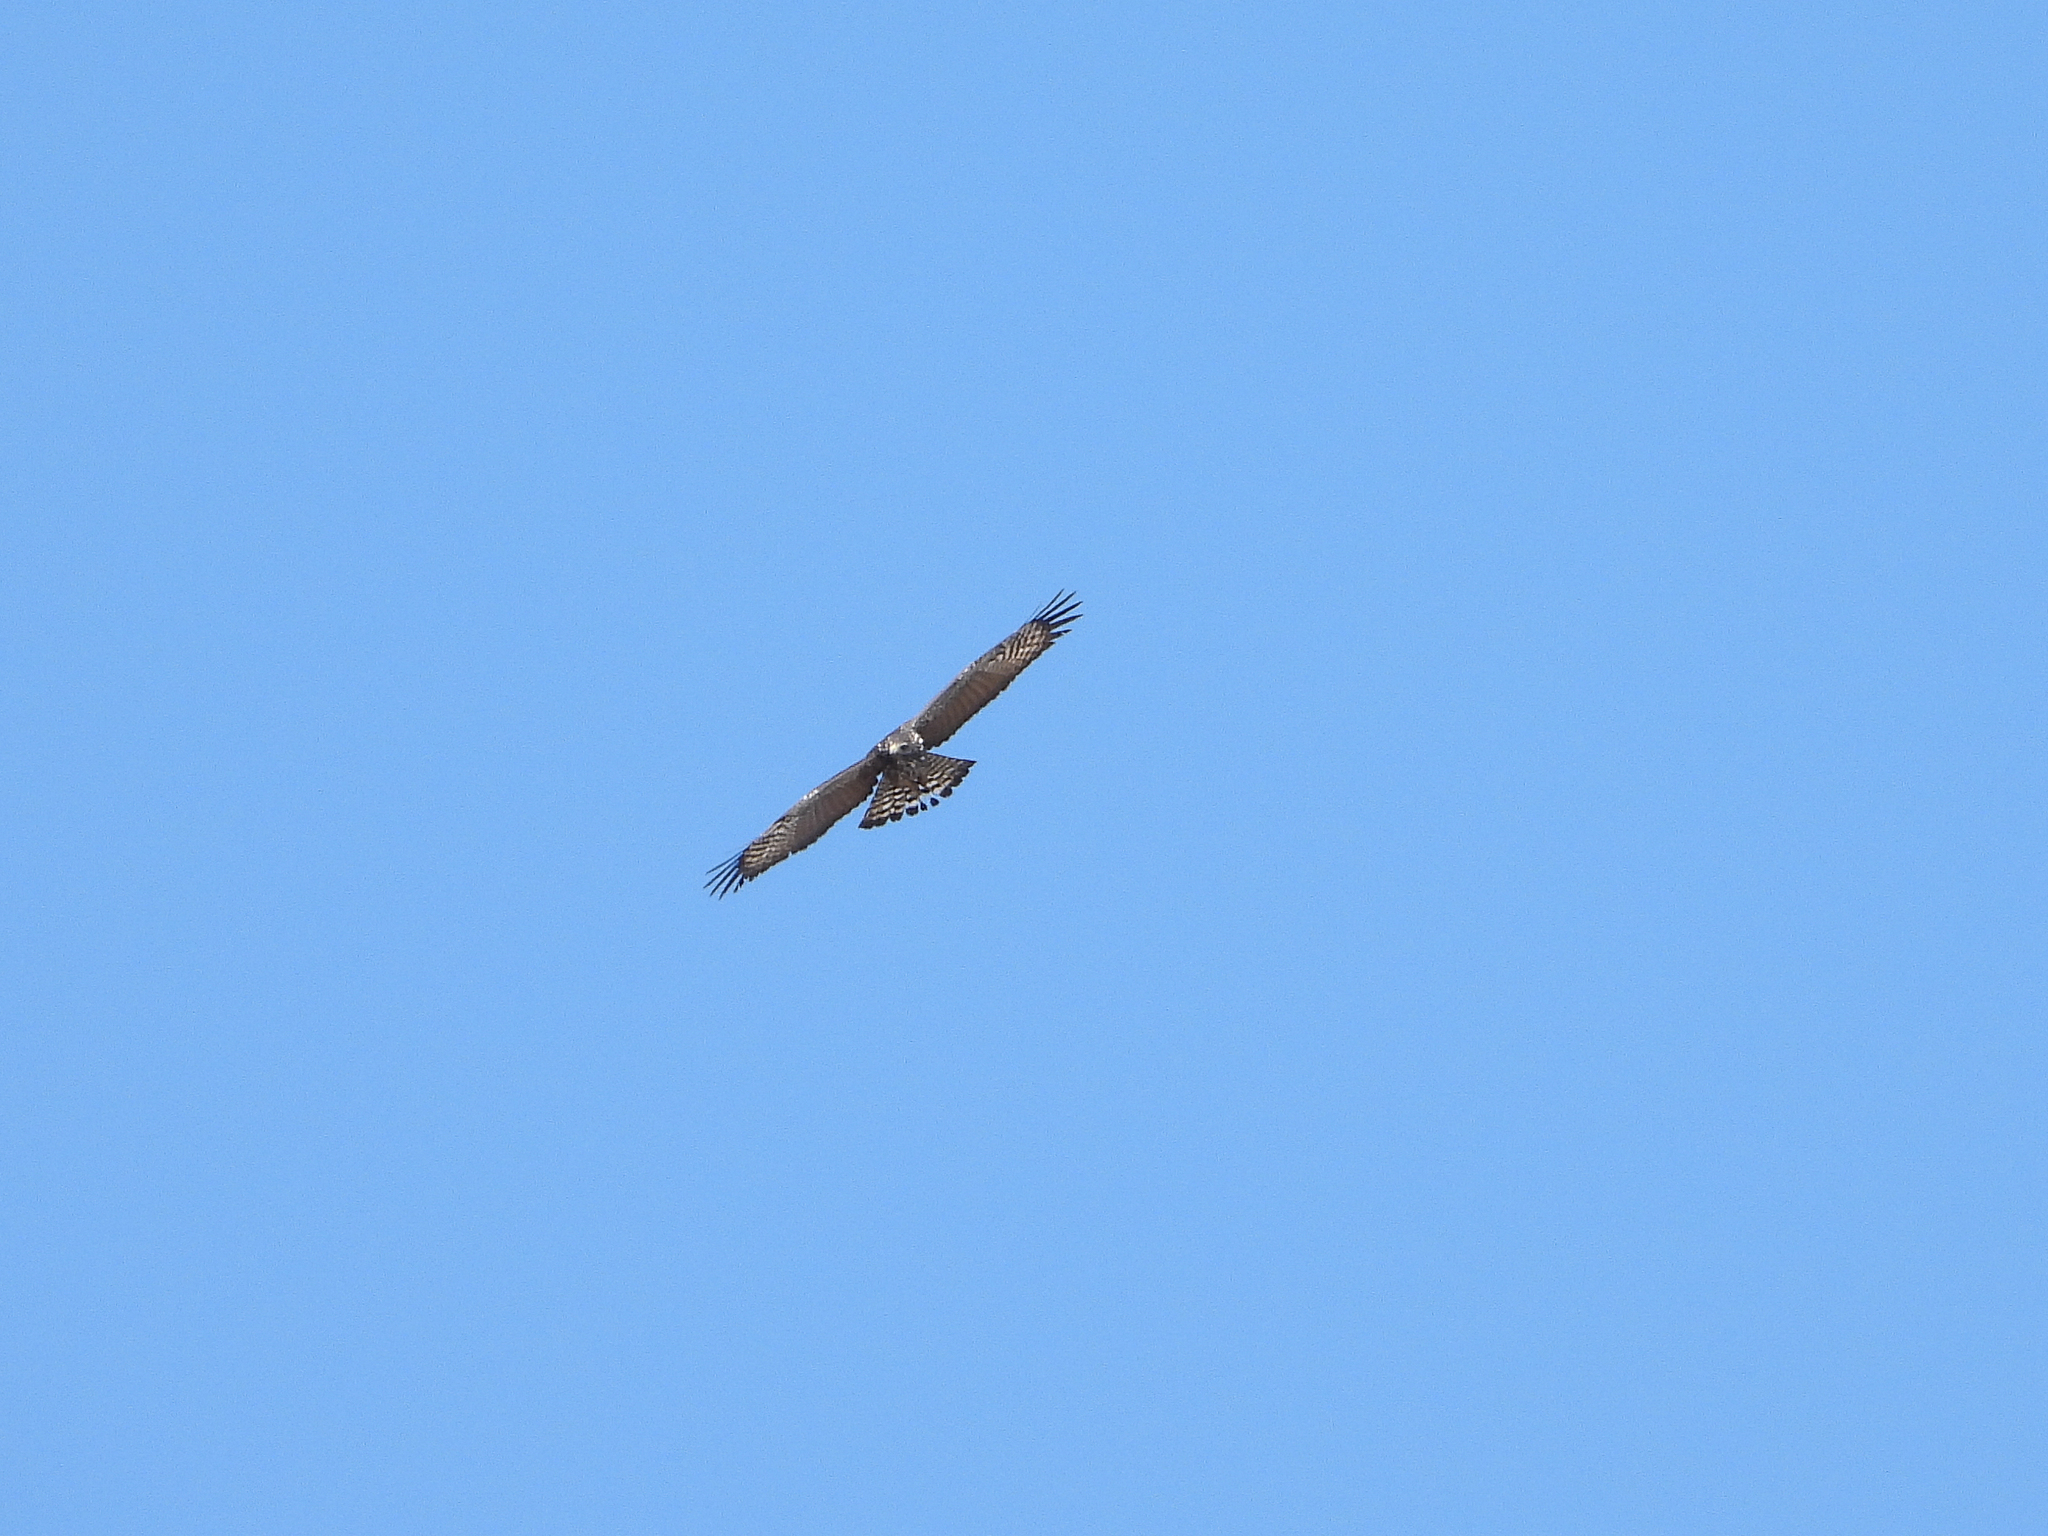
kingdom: Animalia
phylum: Chordata
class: Aves
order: Accipitriformes
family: Accipitridae
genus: Buteogallus
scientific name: Buteogallus anthracinus
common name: Common black hawk
